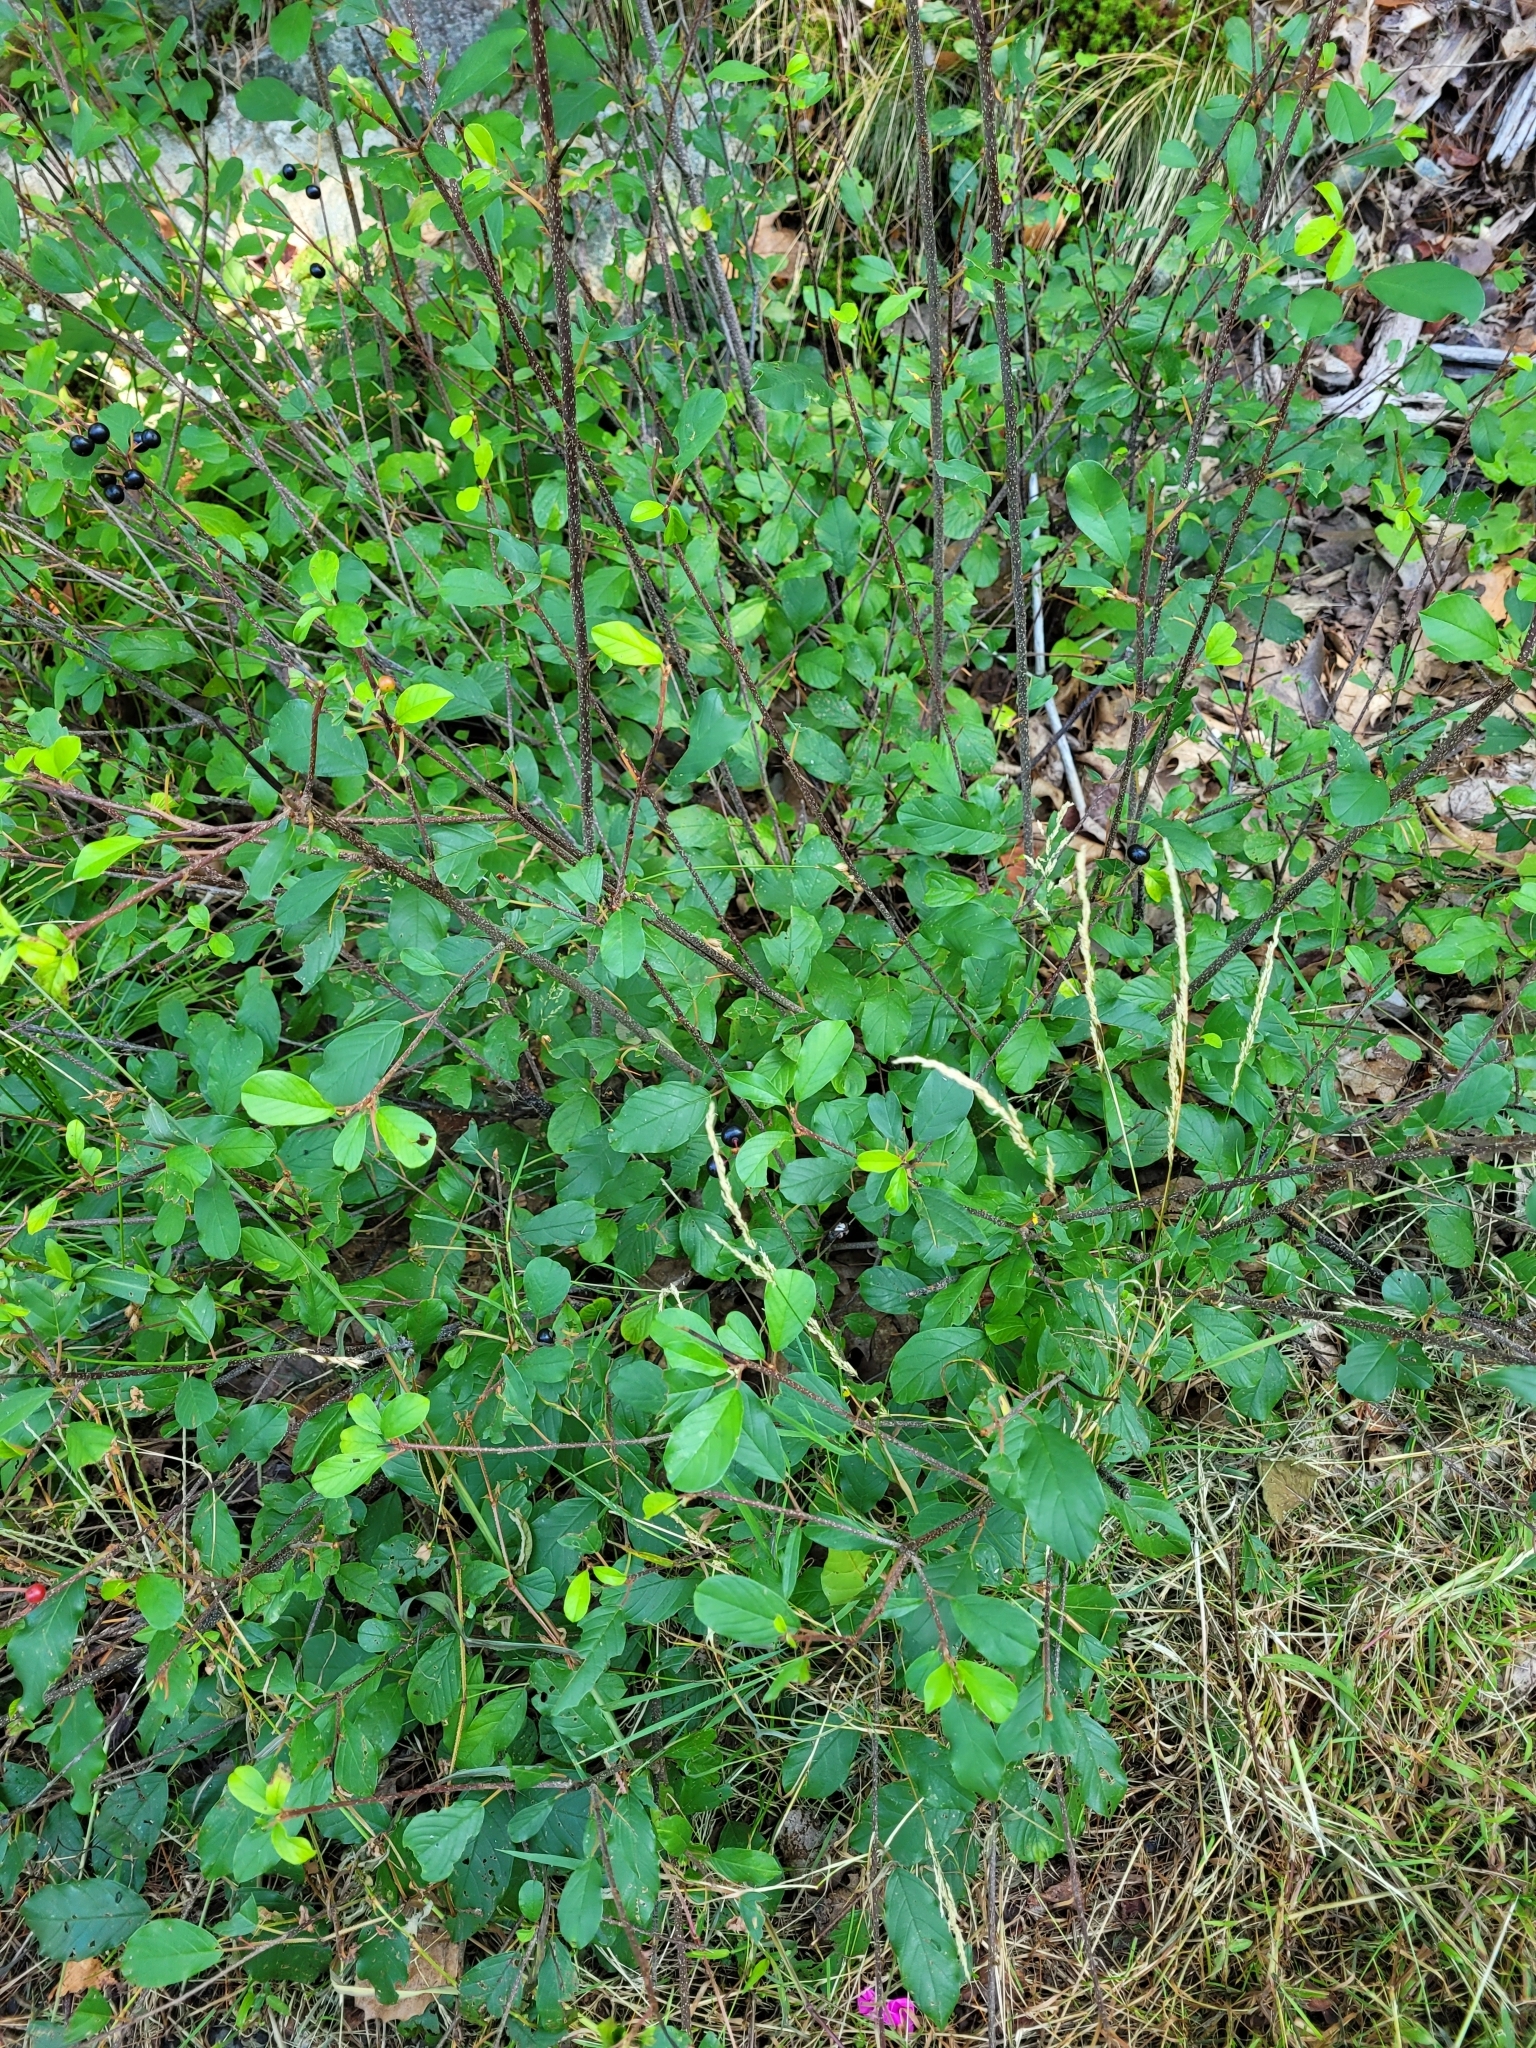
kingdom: Plantae
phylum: Tracheophyta
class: Magnoliopsida
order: Rosales
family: Rhamnaceae
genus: Frangula
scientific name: Frangula alnus
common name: Alder buckthorn
